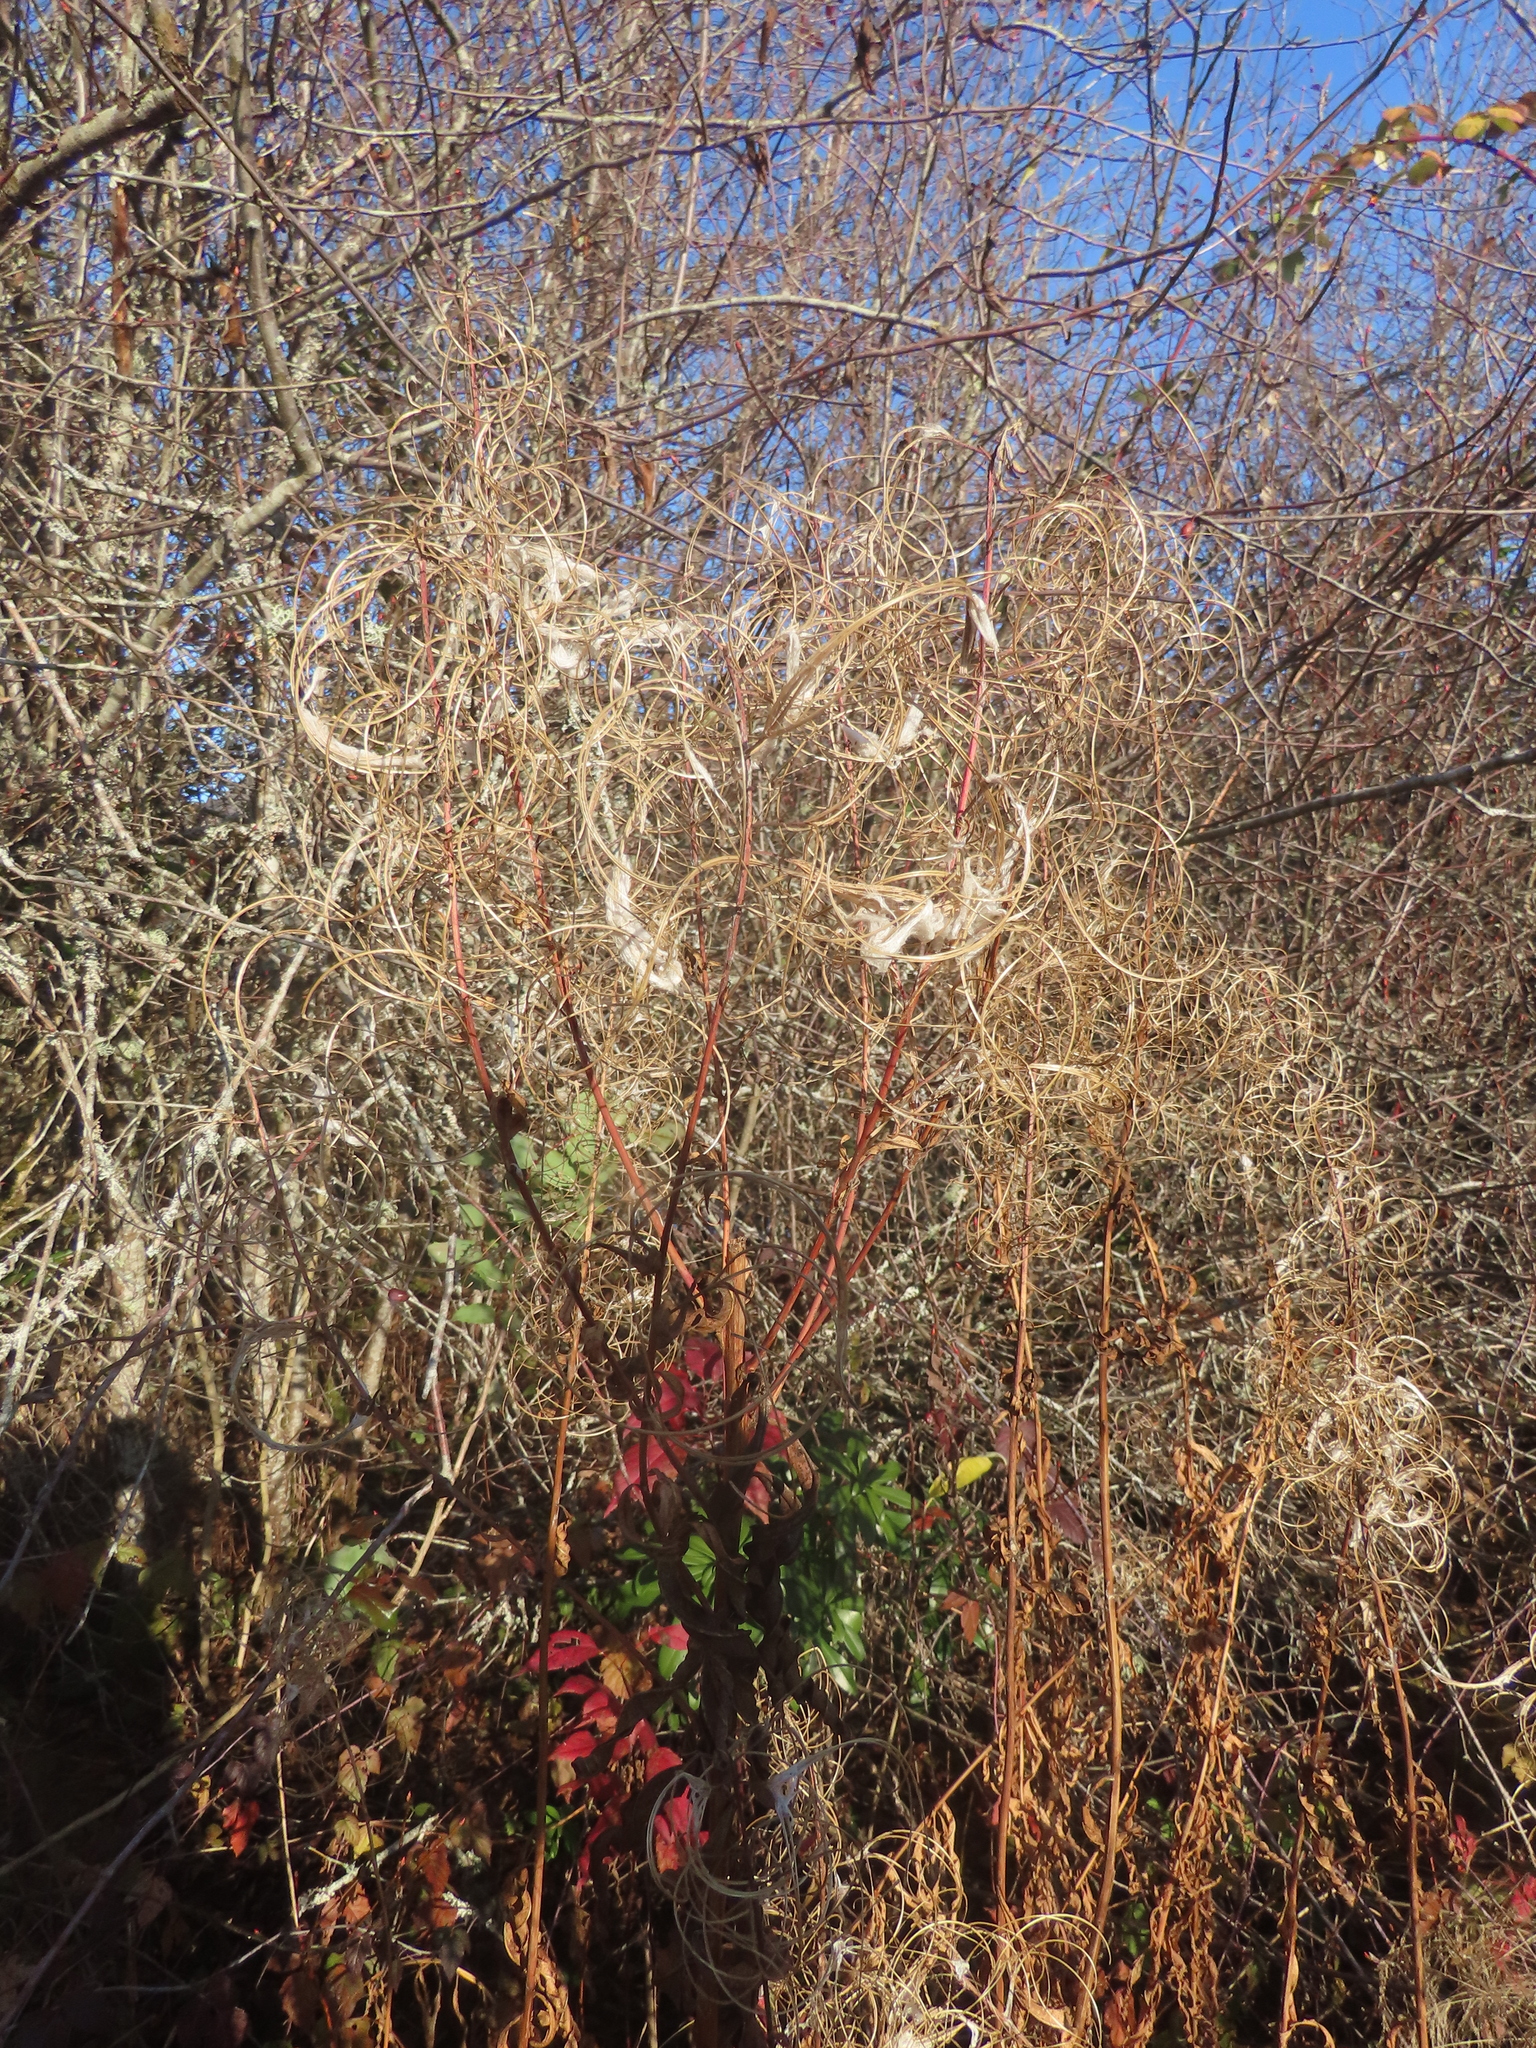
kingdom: Plantae
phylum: Tracheophyta
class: Magnoliopsida
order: Myrtales
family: Onagraceae
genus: Chamaenerion
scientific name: Chamaenerion angustifolium
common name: Fireweed
